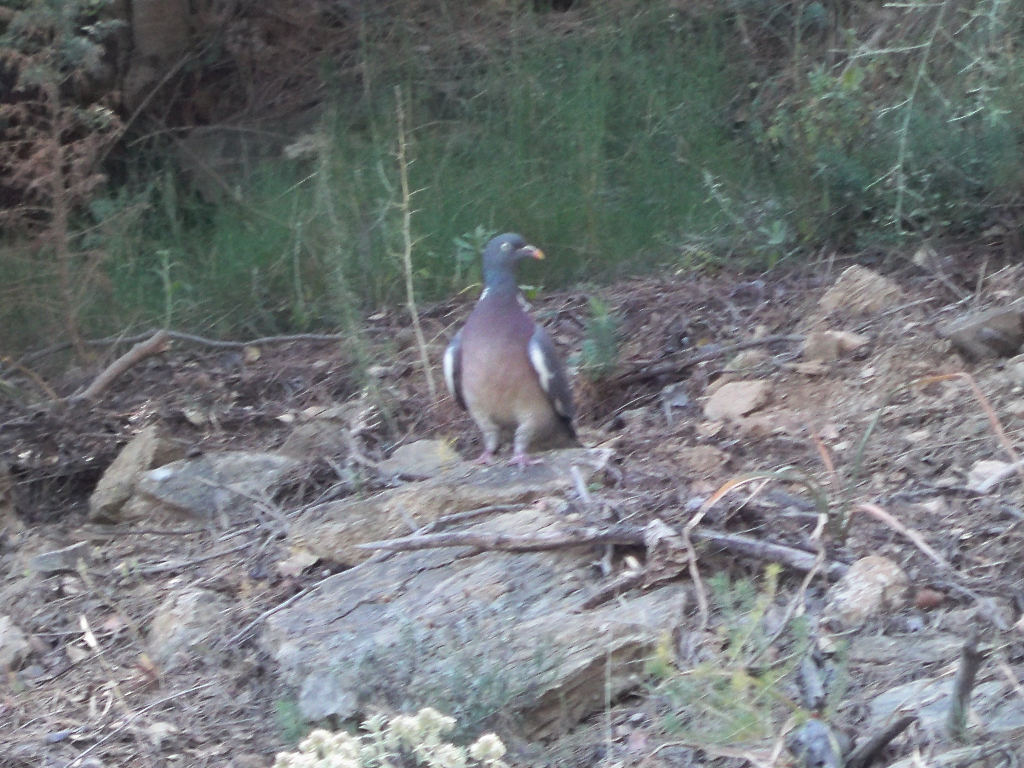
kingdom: Animalia
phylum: Chordata
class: Aves
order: Columbiformes
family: Columbidae
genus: Columba
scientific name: Columba palumbus
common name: Common wood pigeon
